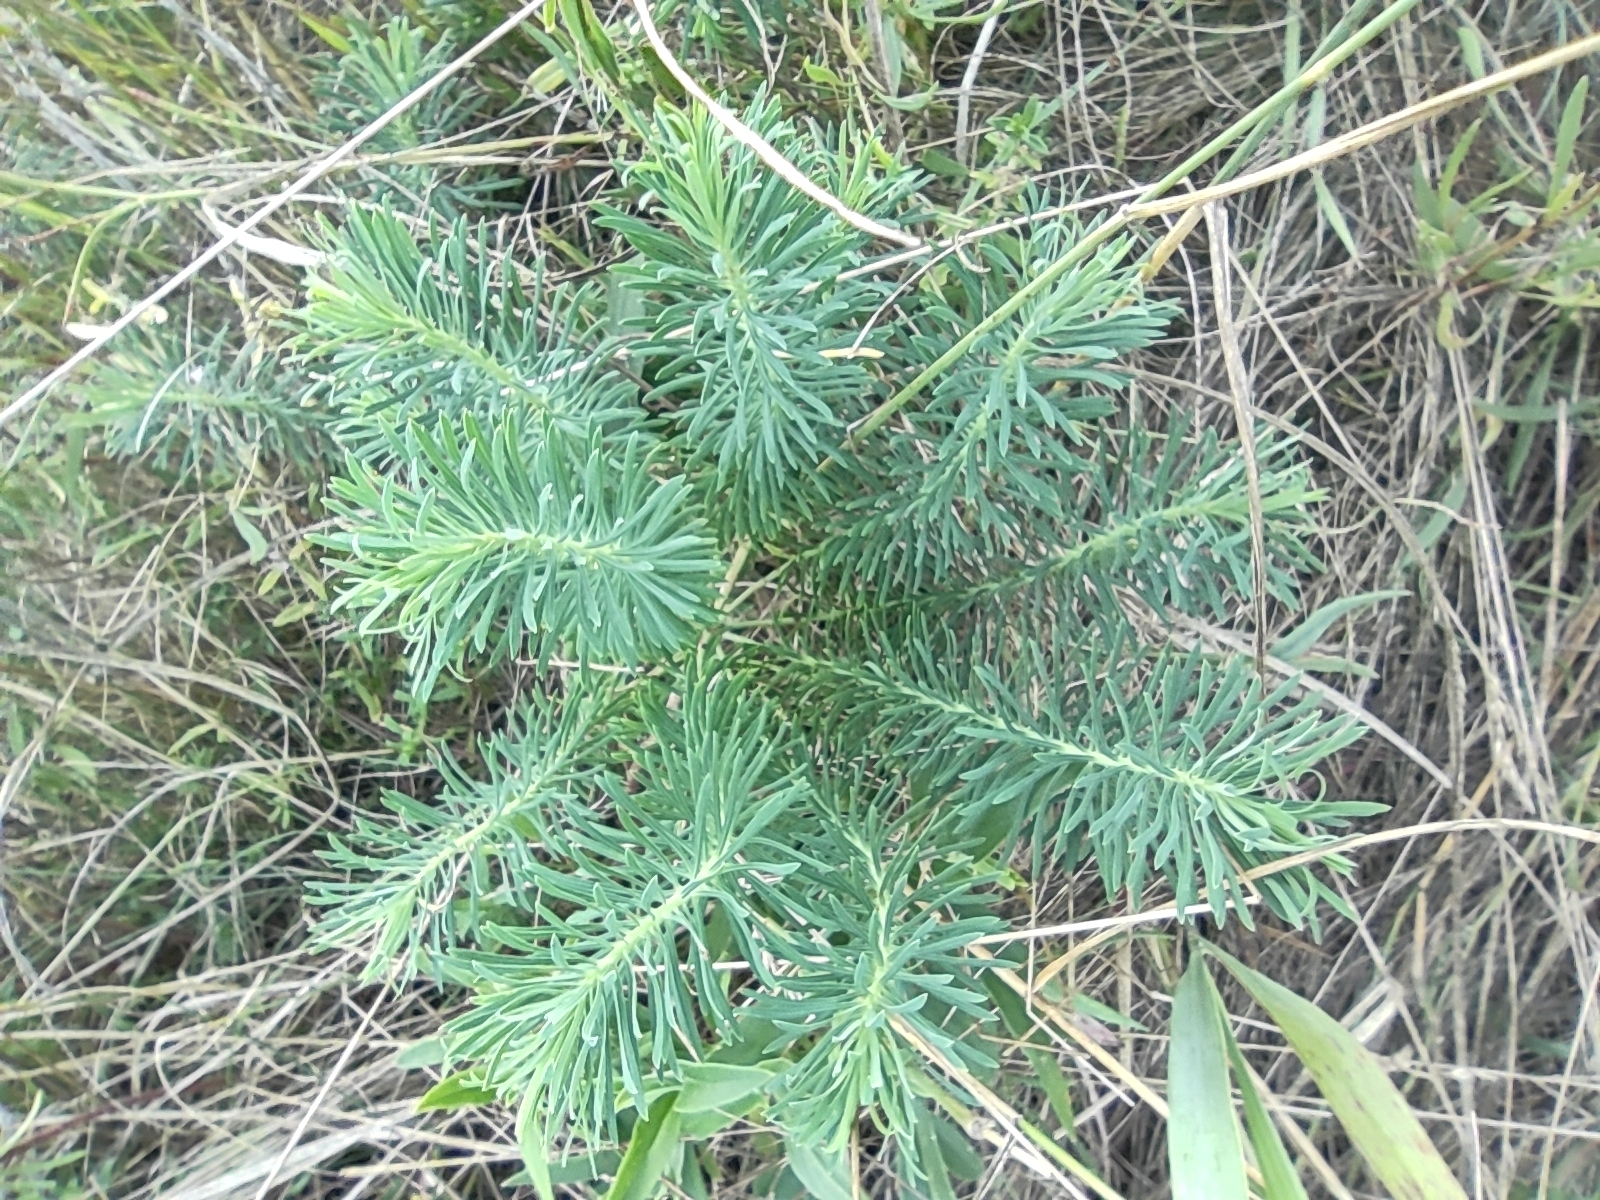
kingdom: Plantae
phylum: Tracheophyta
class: Magnoliopsida
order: Malpighiales
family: Euphorbiaceae
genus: Euphorbia
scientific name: Euphorbia cyparissias
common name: Cypress spurge
